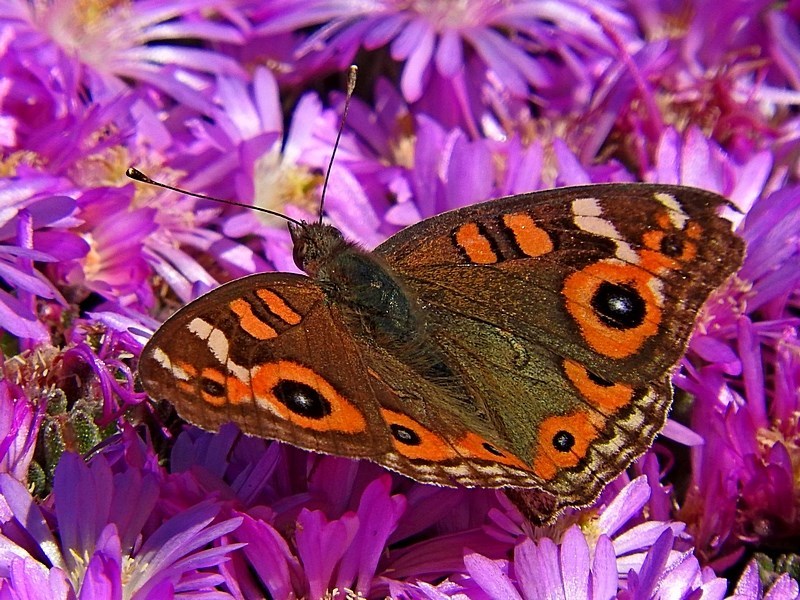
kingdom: Animalia
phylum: Arthropoda
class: Insecta
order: Lepidoptera
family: Nymphalidae
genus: Junonia
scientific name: Junonia villida
